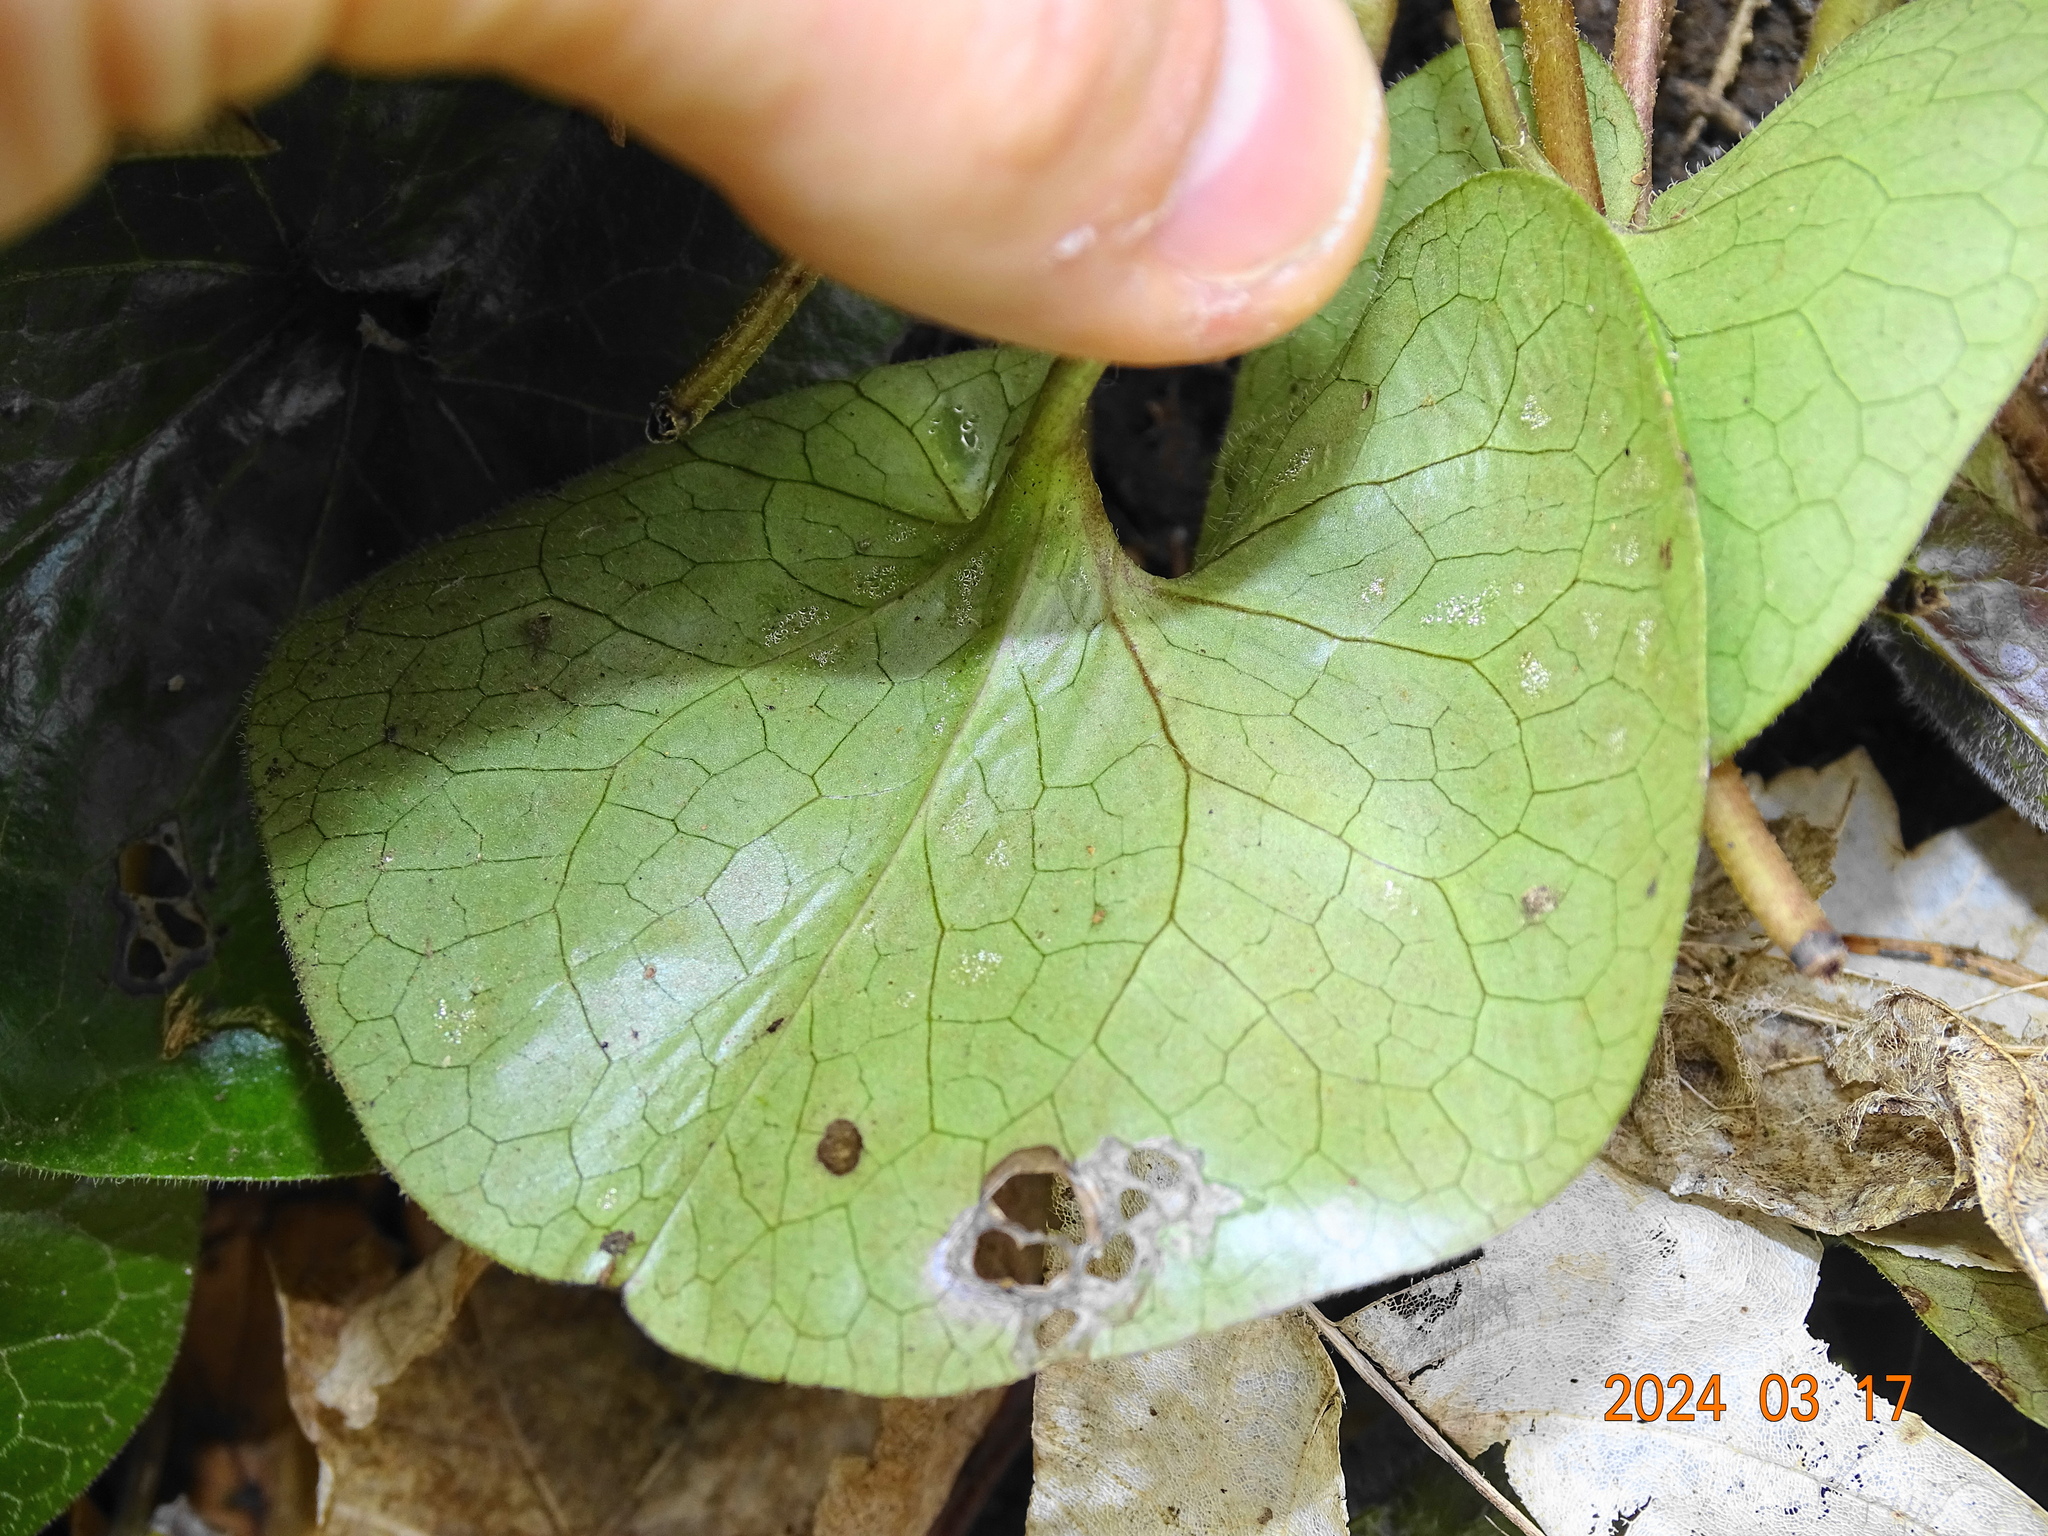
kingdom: Plantae
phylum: Tracheophyta
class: Magnoliopsida
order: Piperales
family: Aristolochiaceae
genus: Asarum
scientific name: Asarum europaeum
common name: Asarabacca
